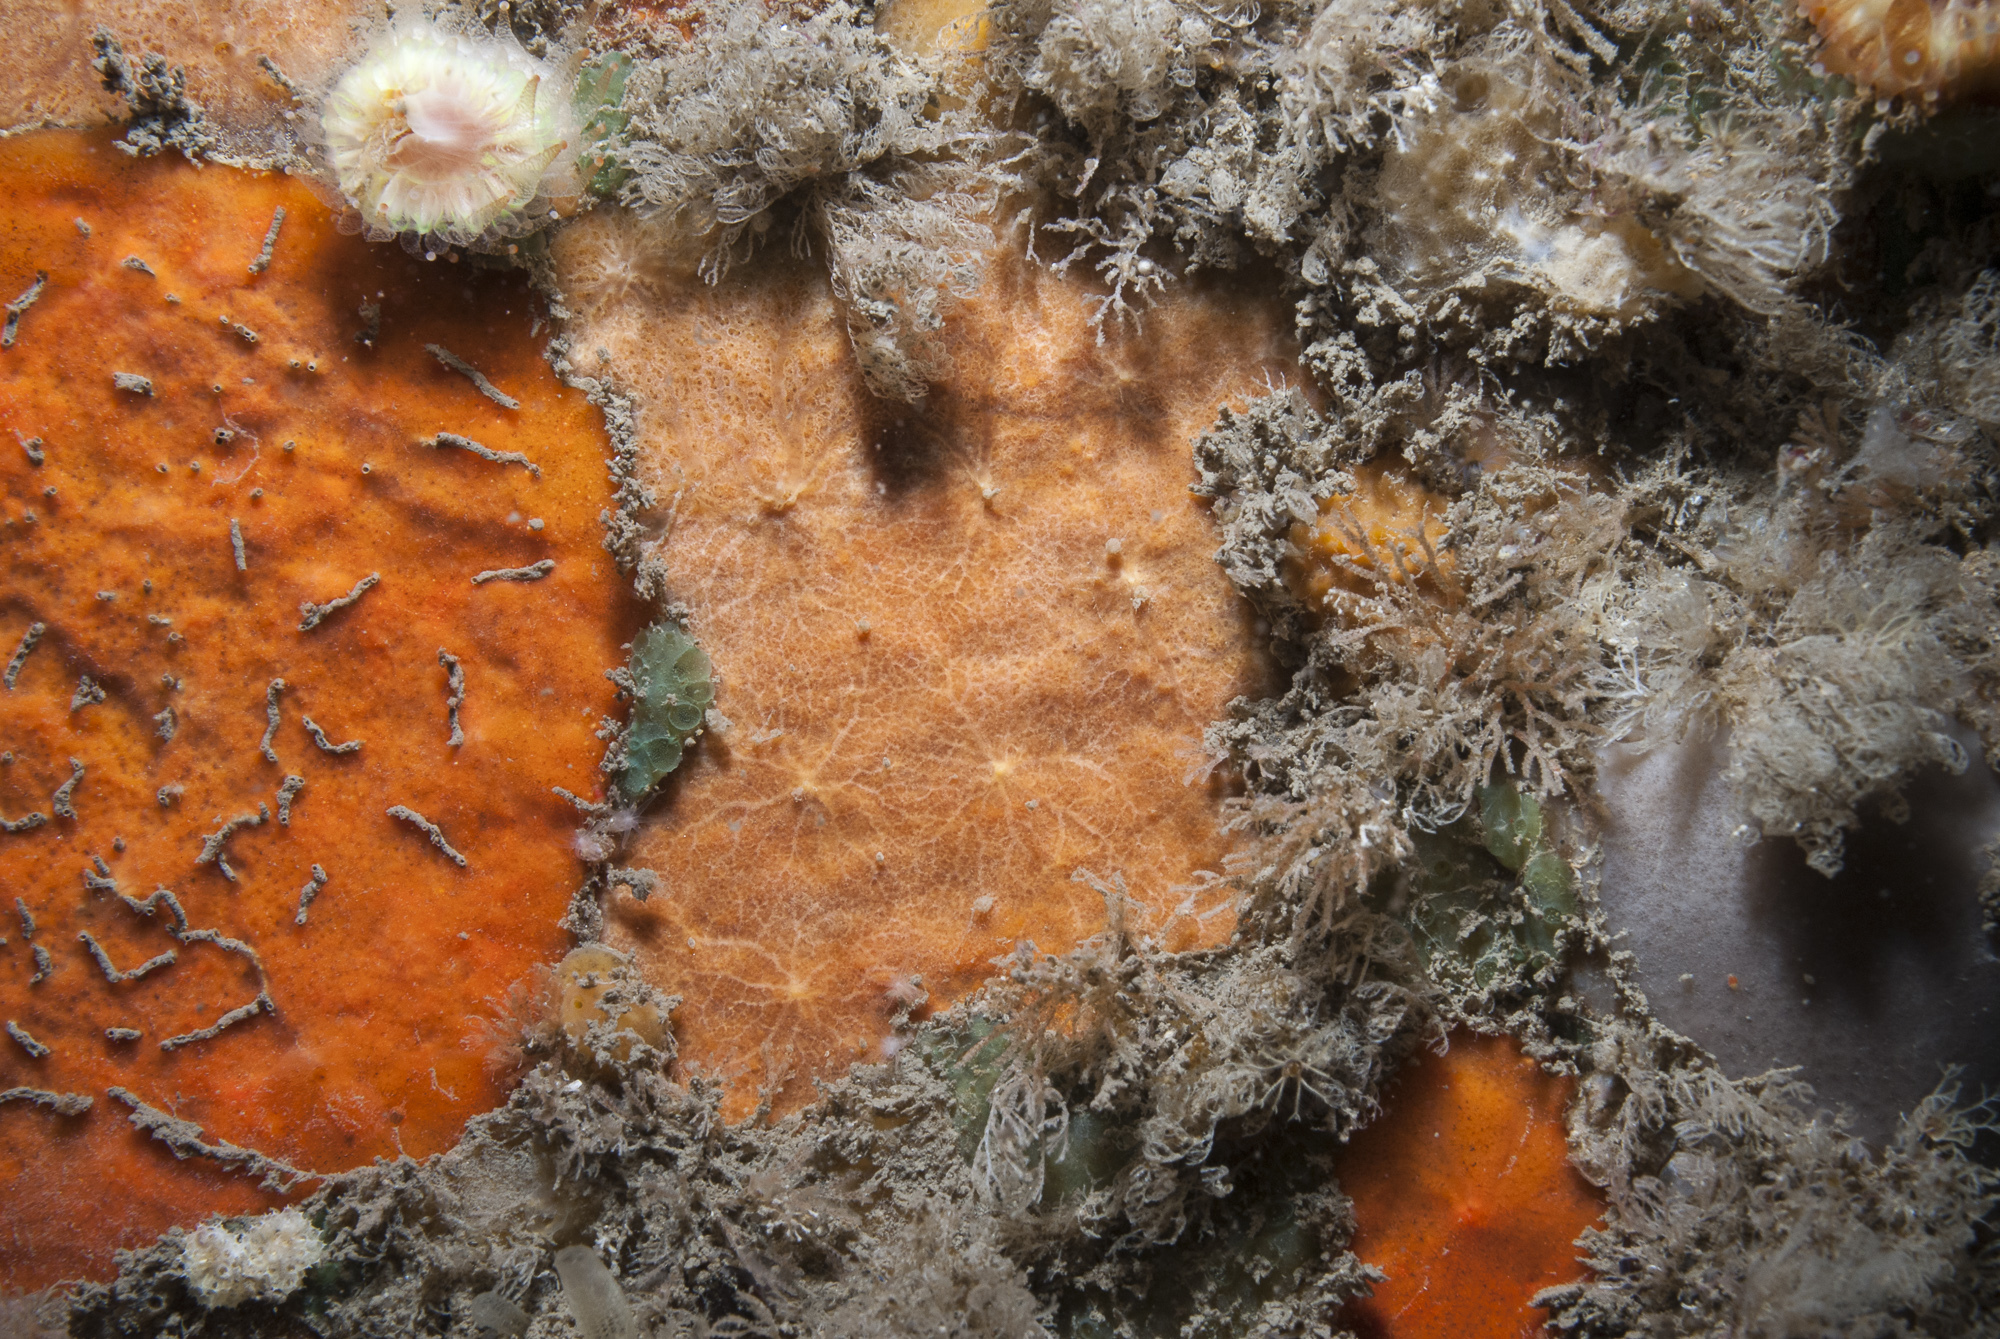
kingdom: Animalia
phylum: Porifera
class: Demospongiae
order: Poecilosclerida
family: Hymedesmiidae
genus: Phorbas
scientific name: Phorbas punctatus
